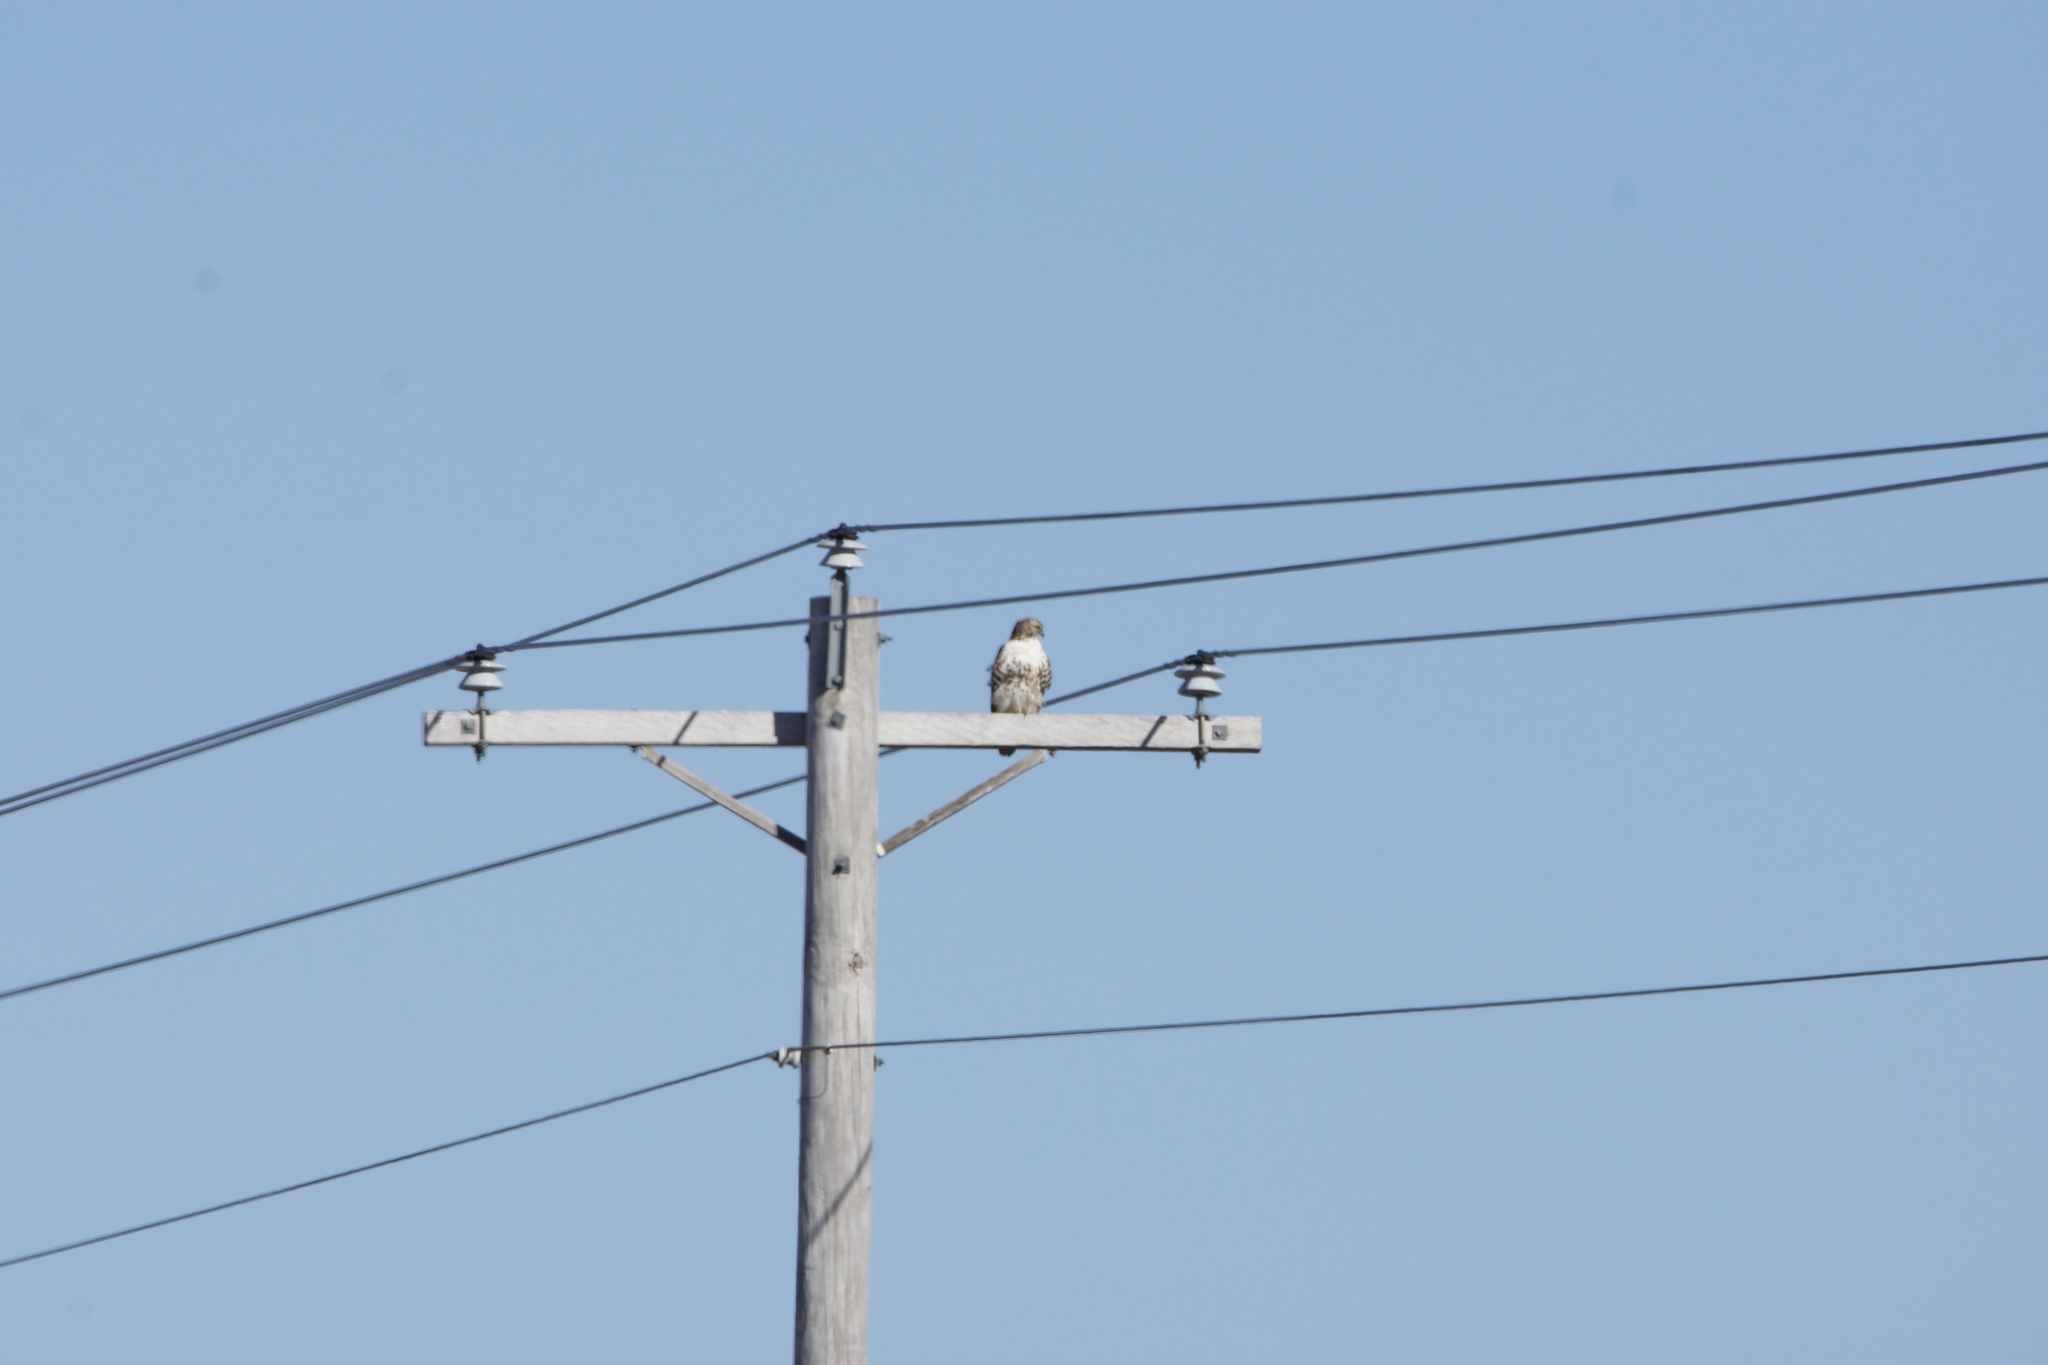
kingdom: Animalia
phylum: Chordata
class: Aves
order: Accipitriformes
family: Accipitridae
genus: Buteo
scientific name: Buteo jamaicensis
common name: Red-tailed hawk
